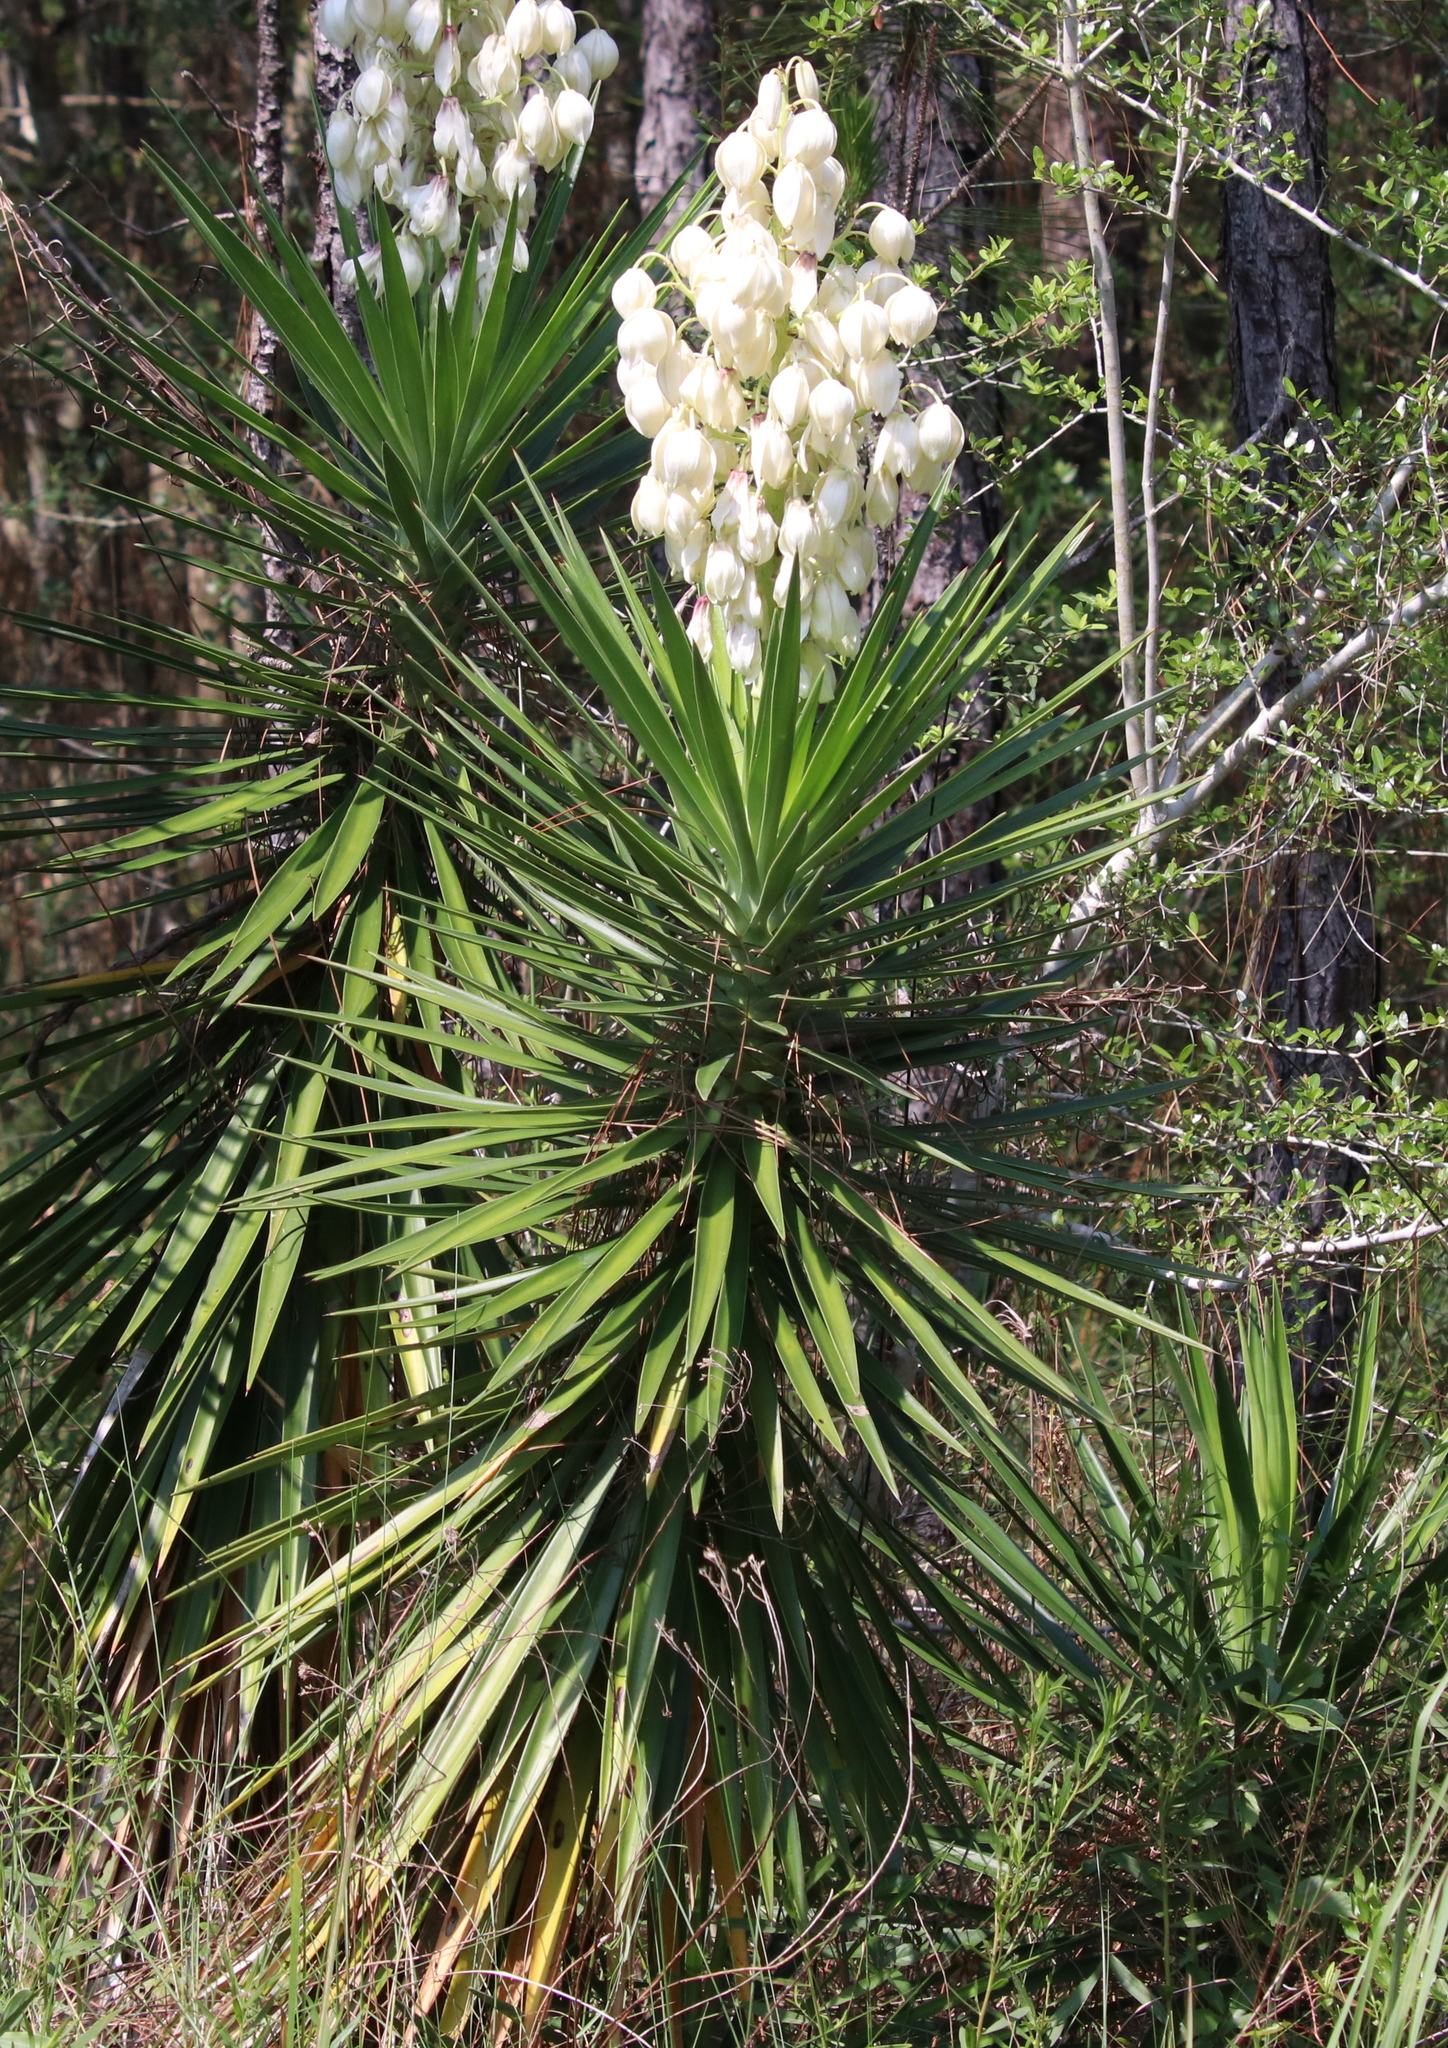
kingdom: Plantae
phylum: Tracheophyta
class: Liliopsida
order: Asparagales
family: Asparagaceae
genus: Yucca
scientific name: Yucca aloifolia
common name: Aloe yucca
